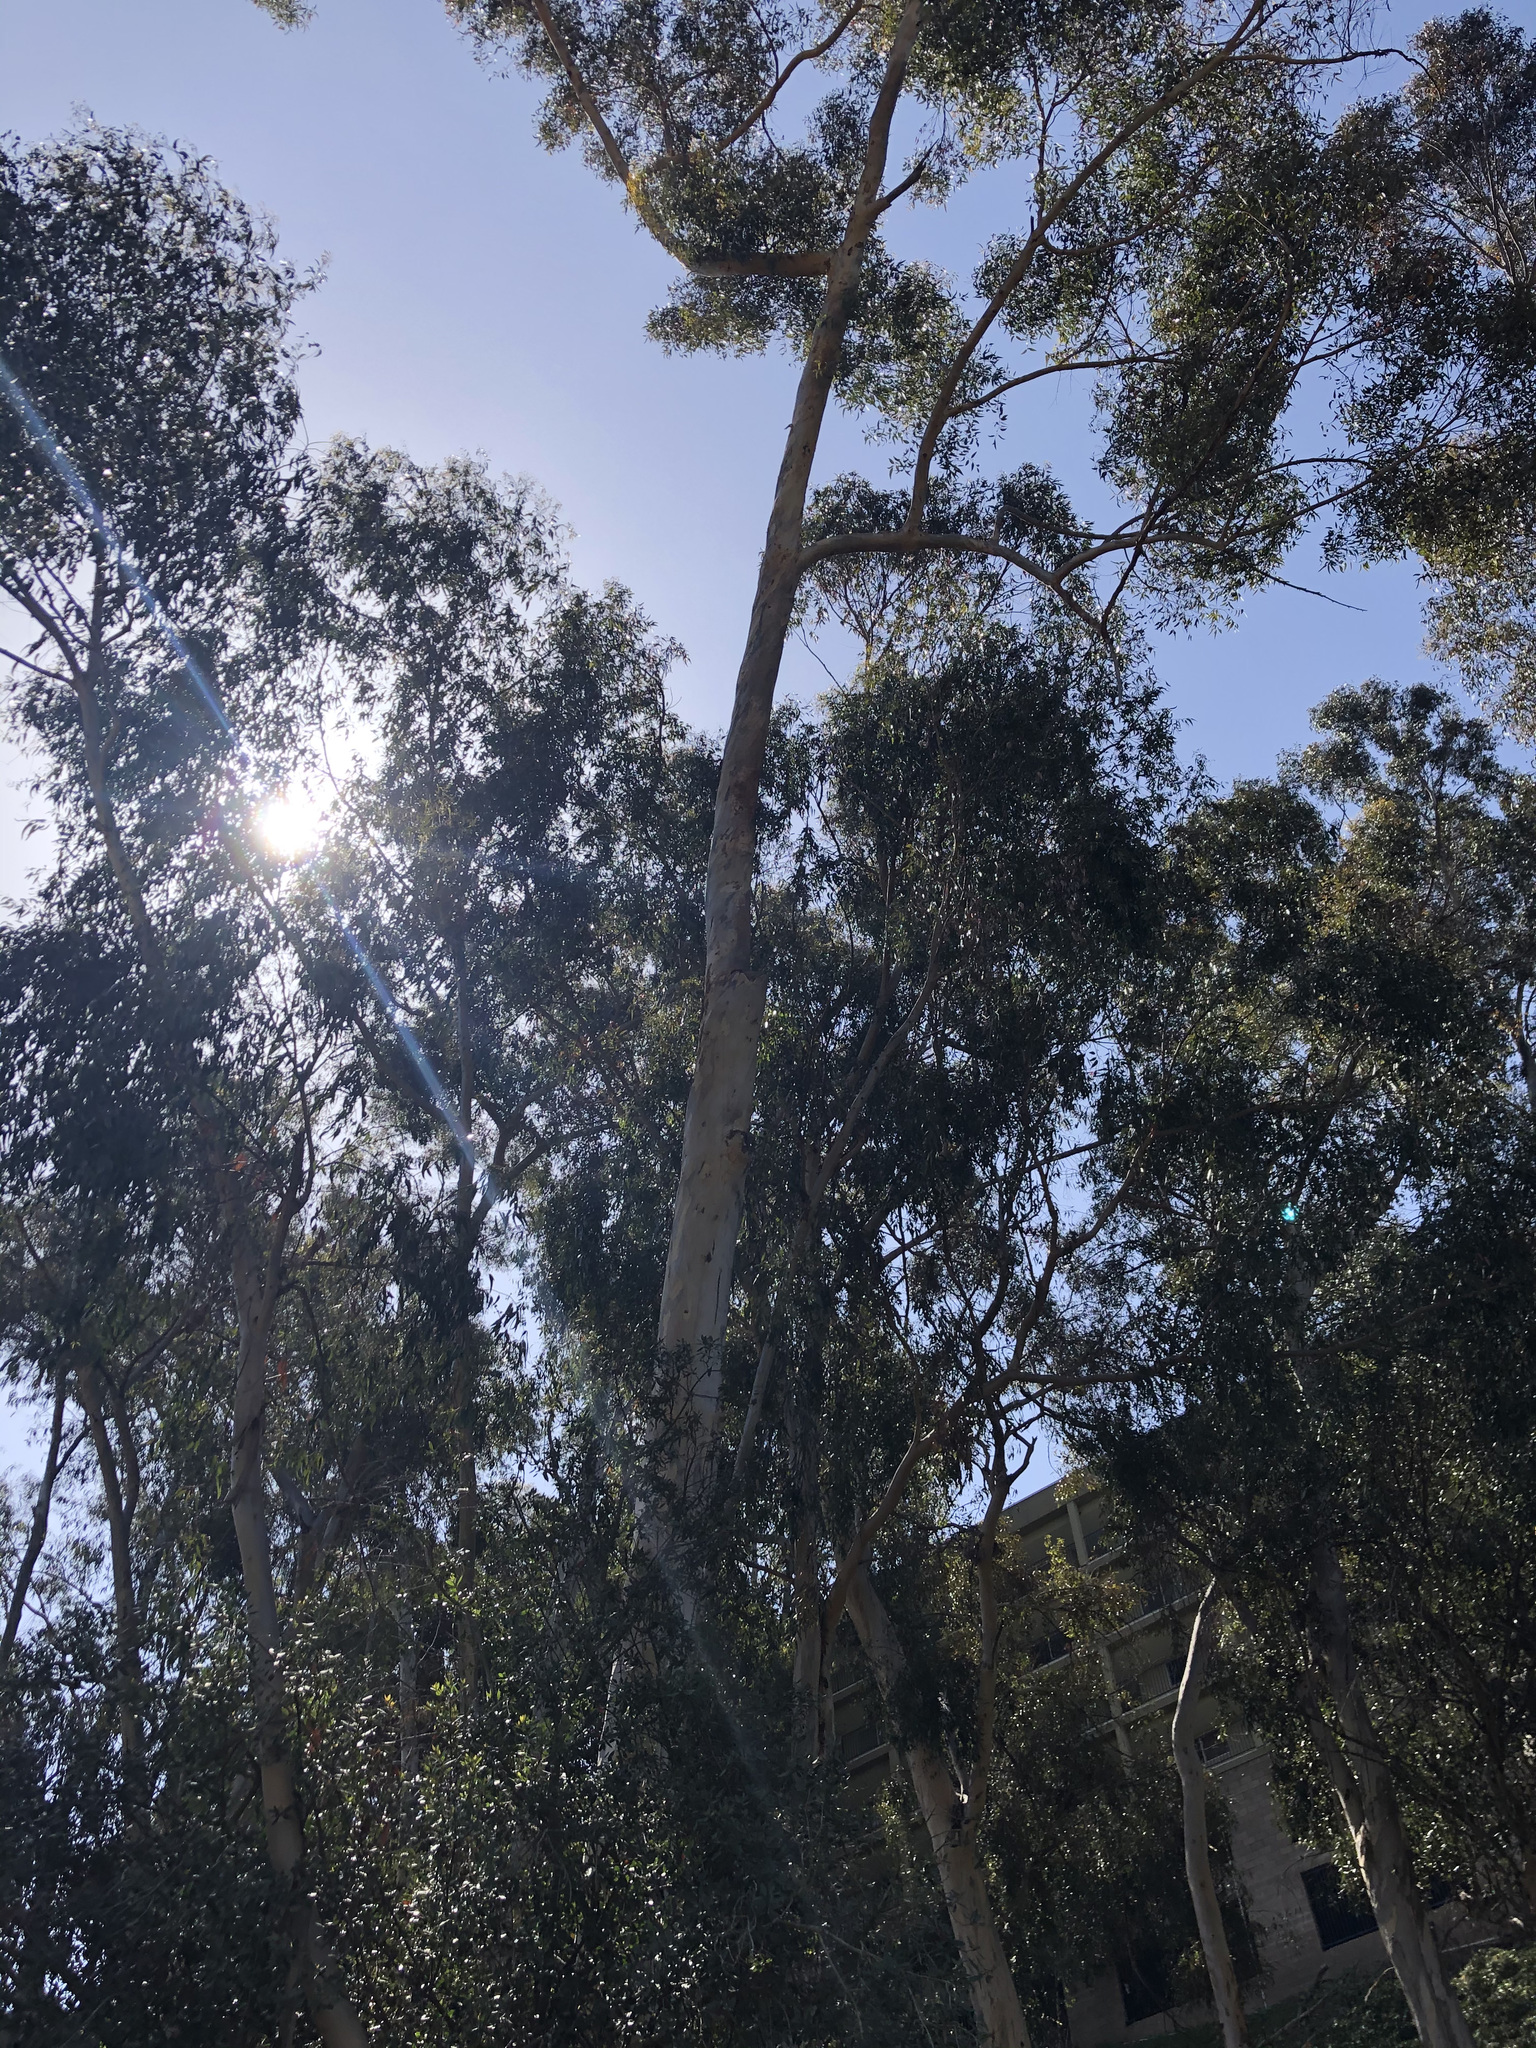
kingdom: Plantae
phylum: Tracheophyta
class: Magnoliopsida
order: Myrtales
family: Myrtaceae
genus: Eucalyptus
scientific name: Eucalyptus cladocalyx
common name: Sugargum
